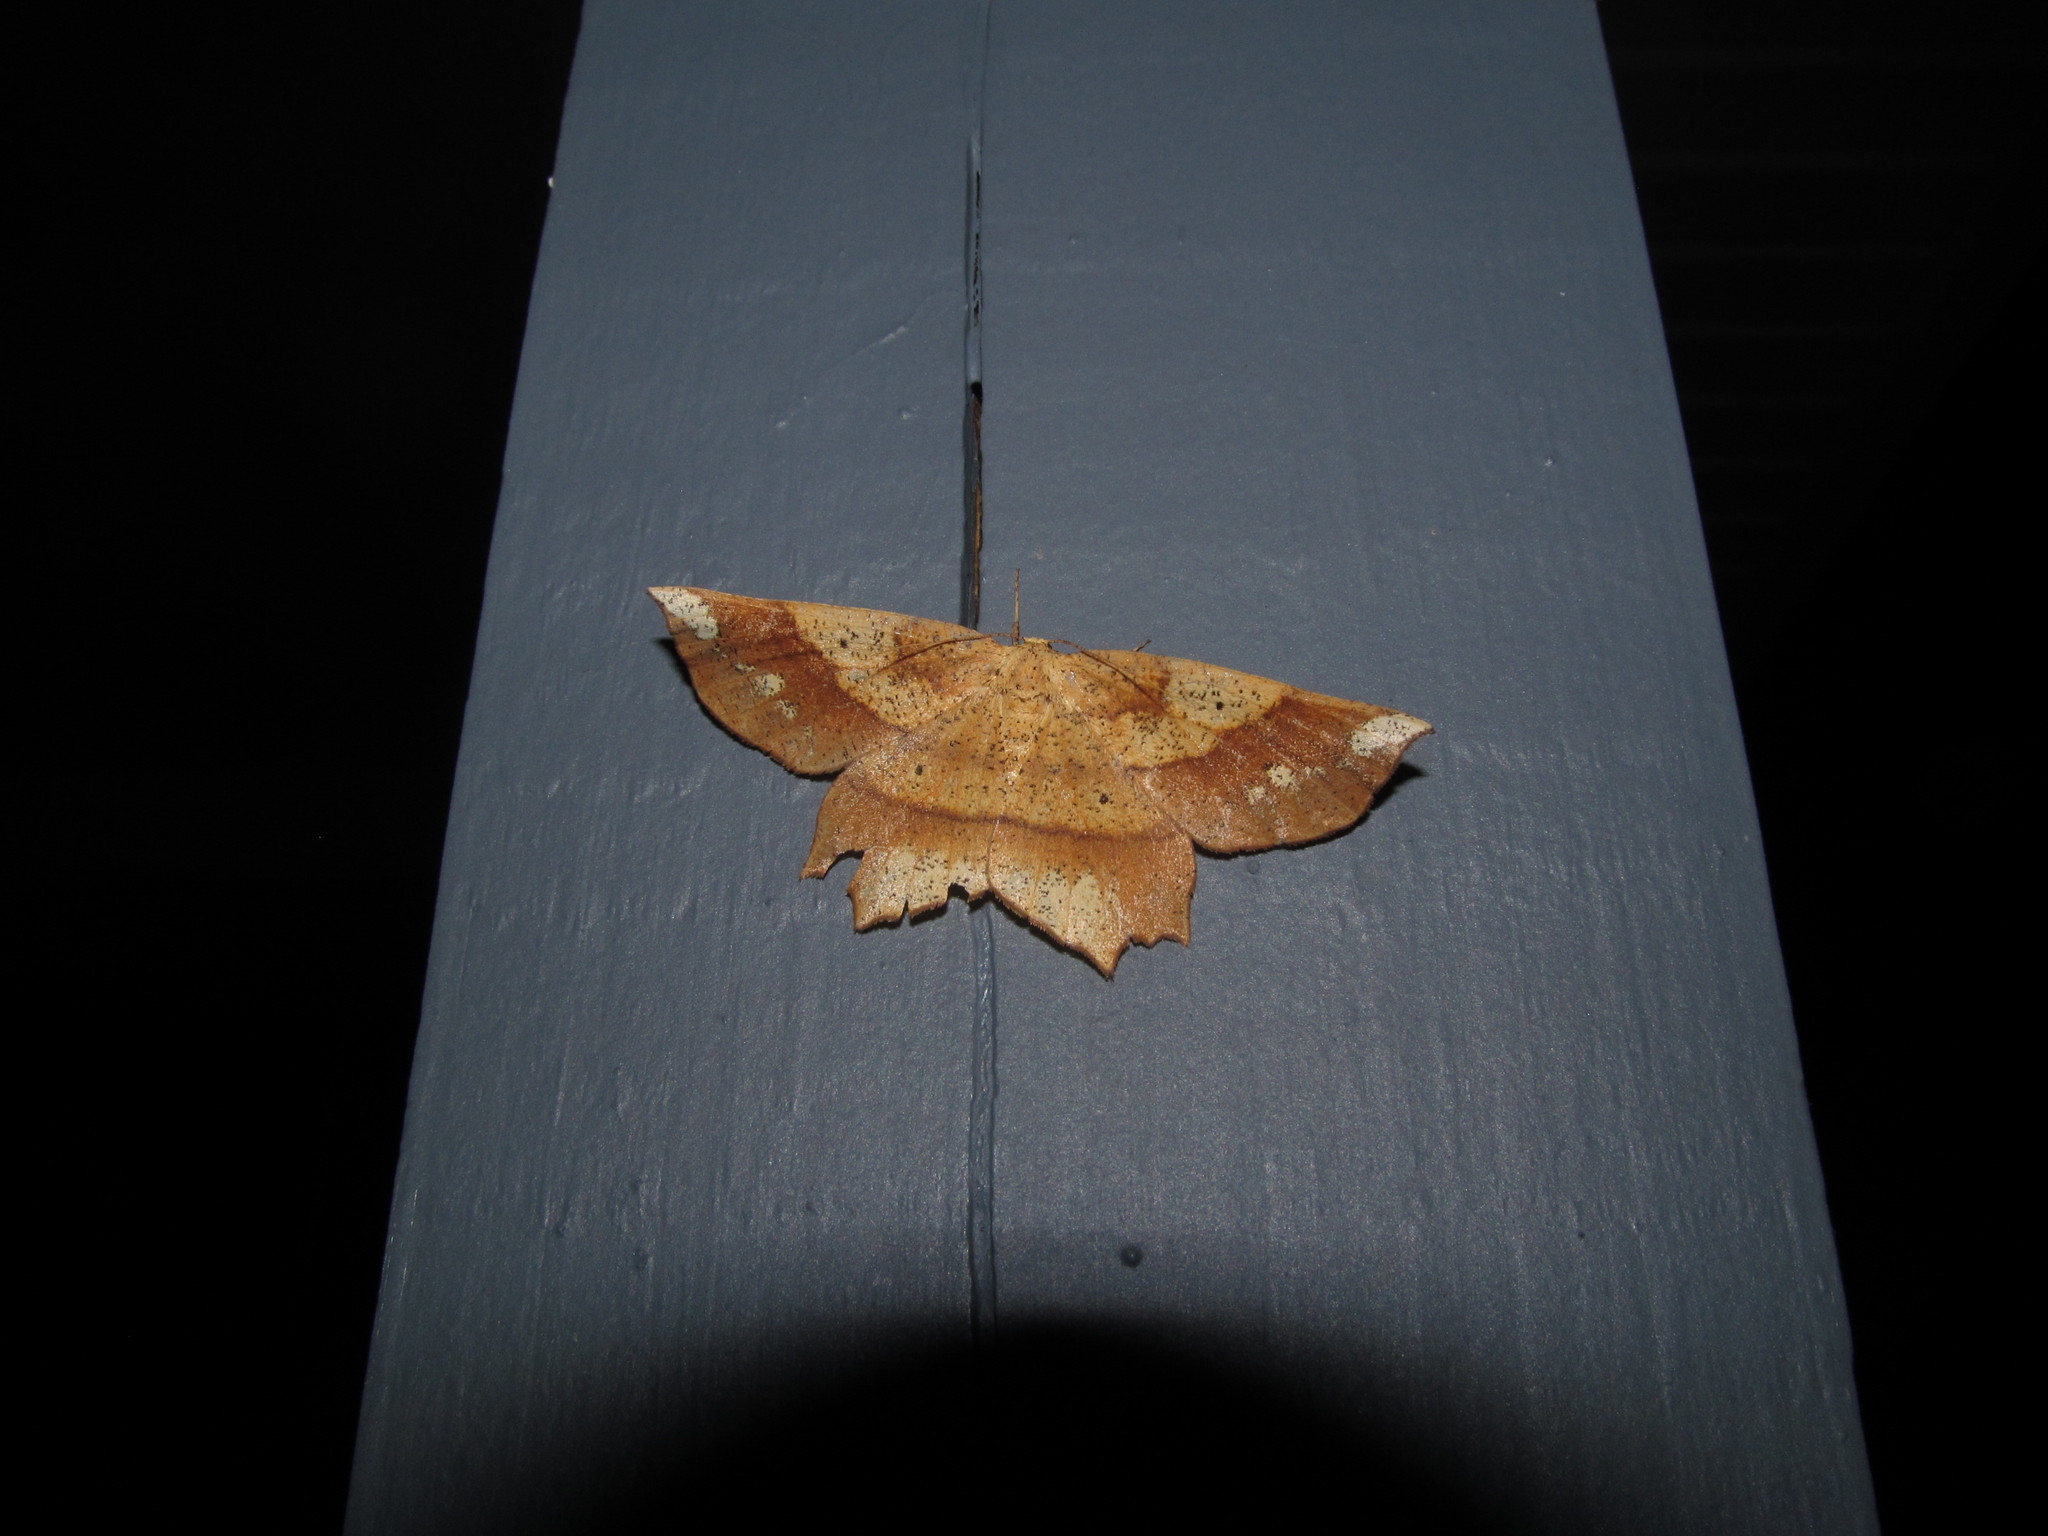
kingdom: Animalia
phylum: Arthropoda
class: Insecta
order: Lepidoptera
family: Geometridae
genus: Euchlaena
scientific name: Euchlaena amoenaria
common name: Deep yellow euchlaena
